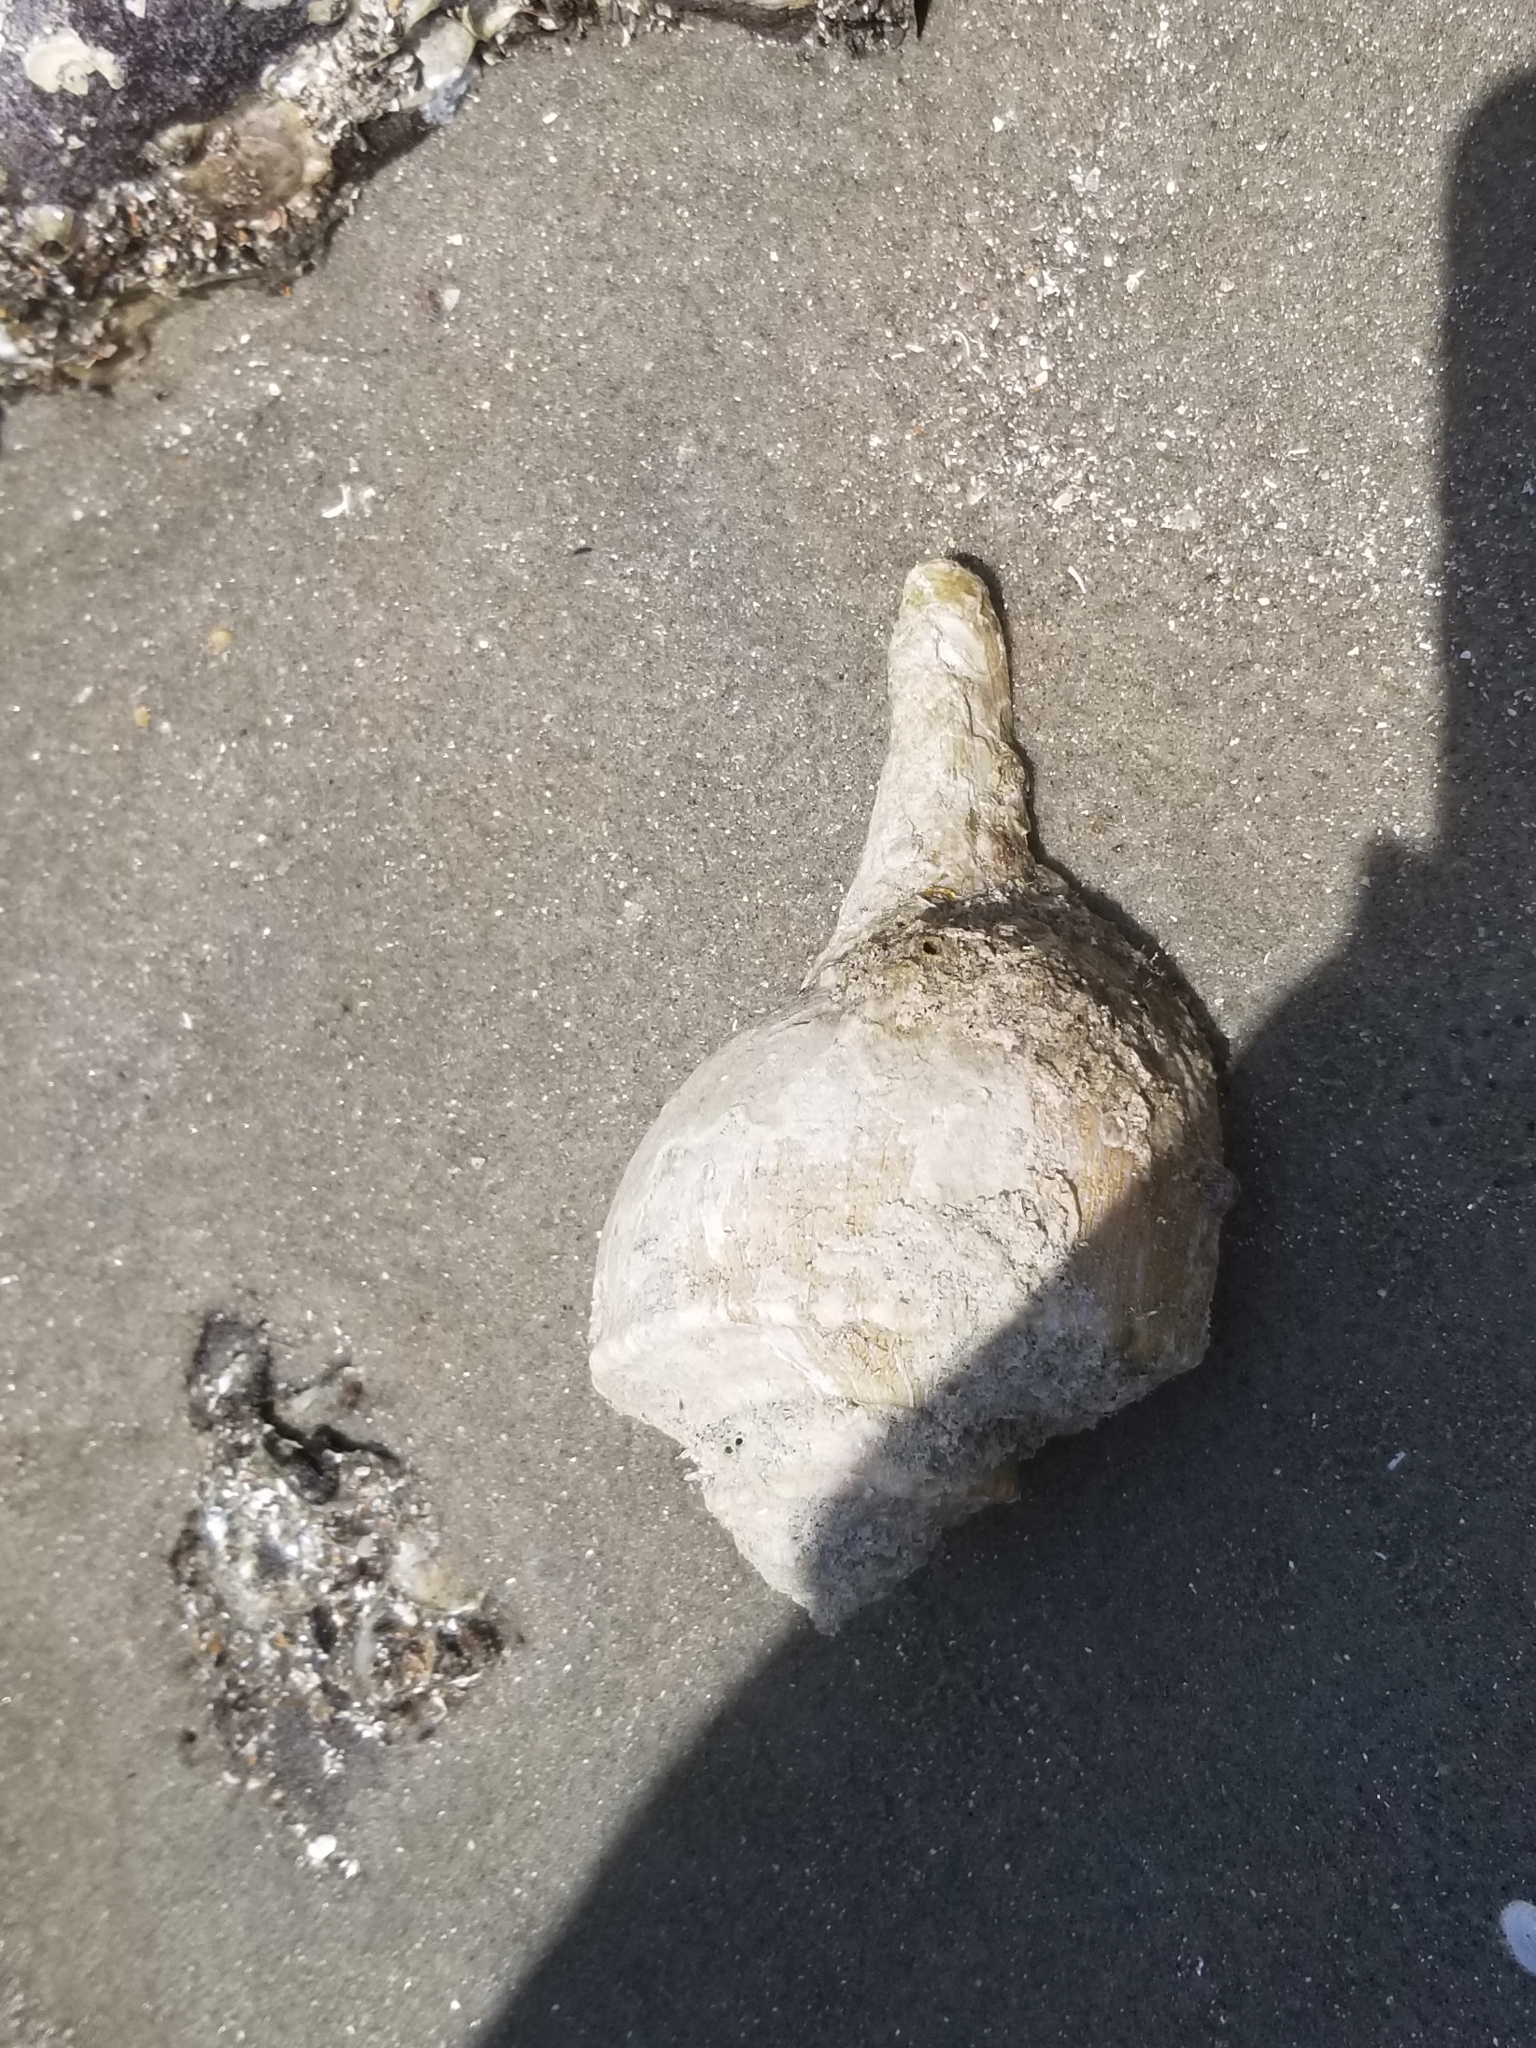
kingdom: Animalia
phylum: Mollusca
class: Gastropoda
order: Neogastropoda
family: Busyconidae
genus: Busycotypus
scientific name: Busycotypus canaliculatus
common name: Channeled whelk
